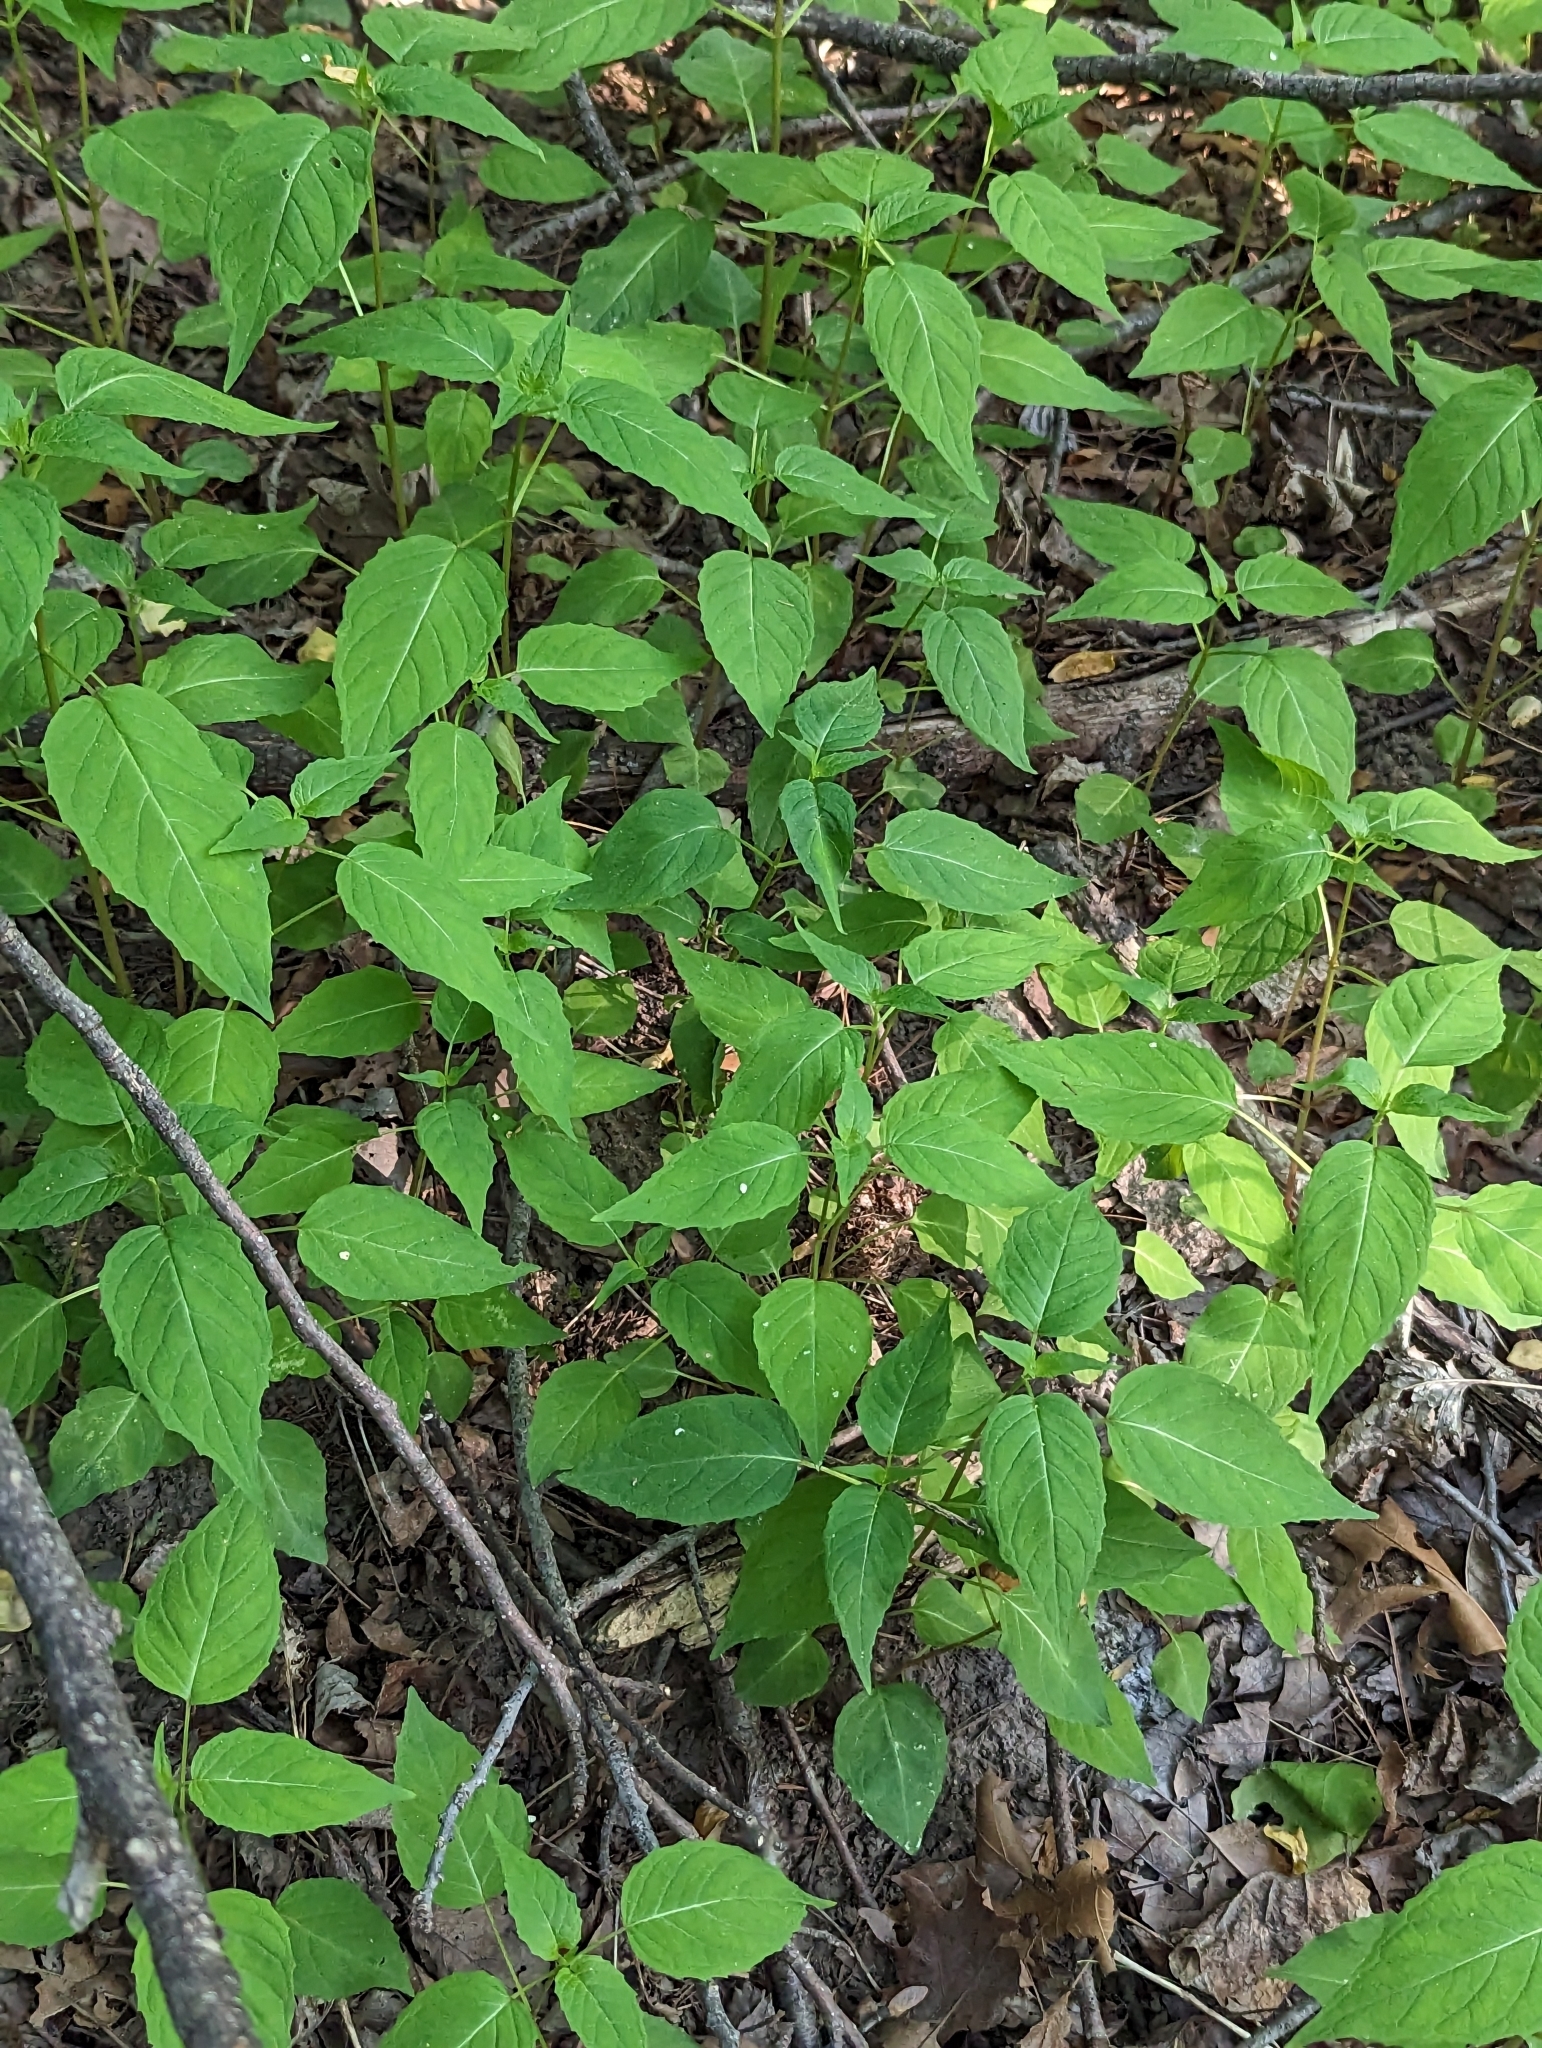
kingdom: Plantae
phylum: Tracheophyta
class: Magnoliopsida
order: Myrtales
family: Onagraceae
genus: Circaea
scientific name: Circaea canadensis
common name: Broad-leaved enchanter's nightshade
